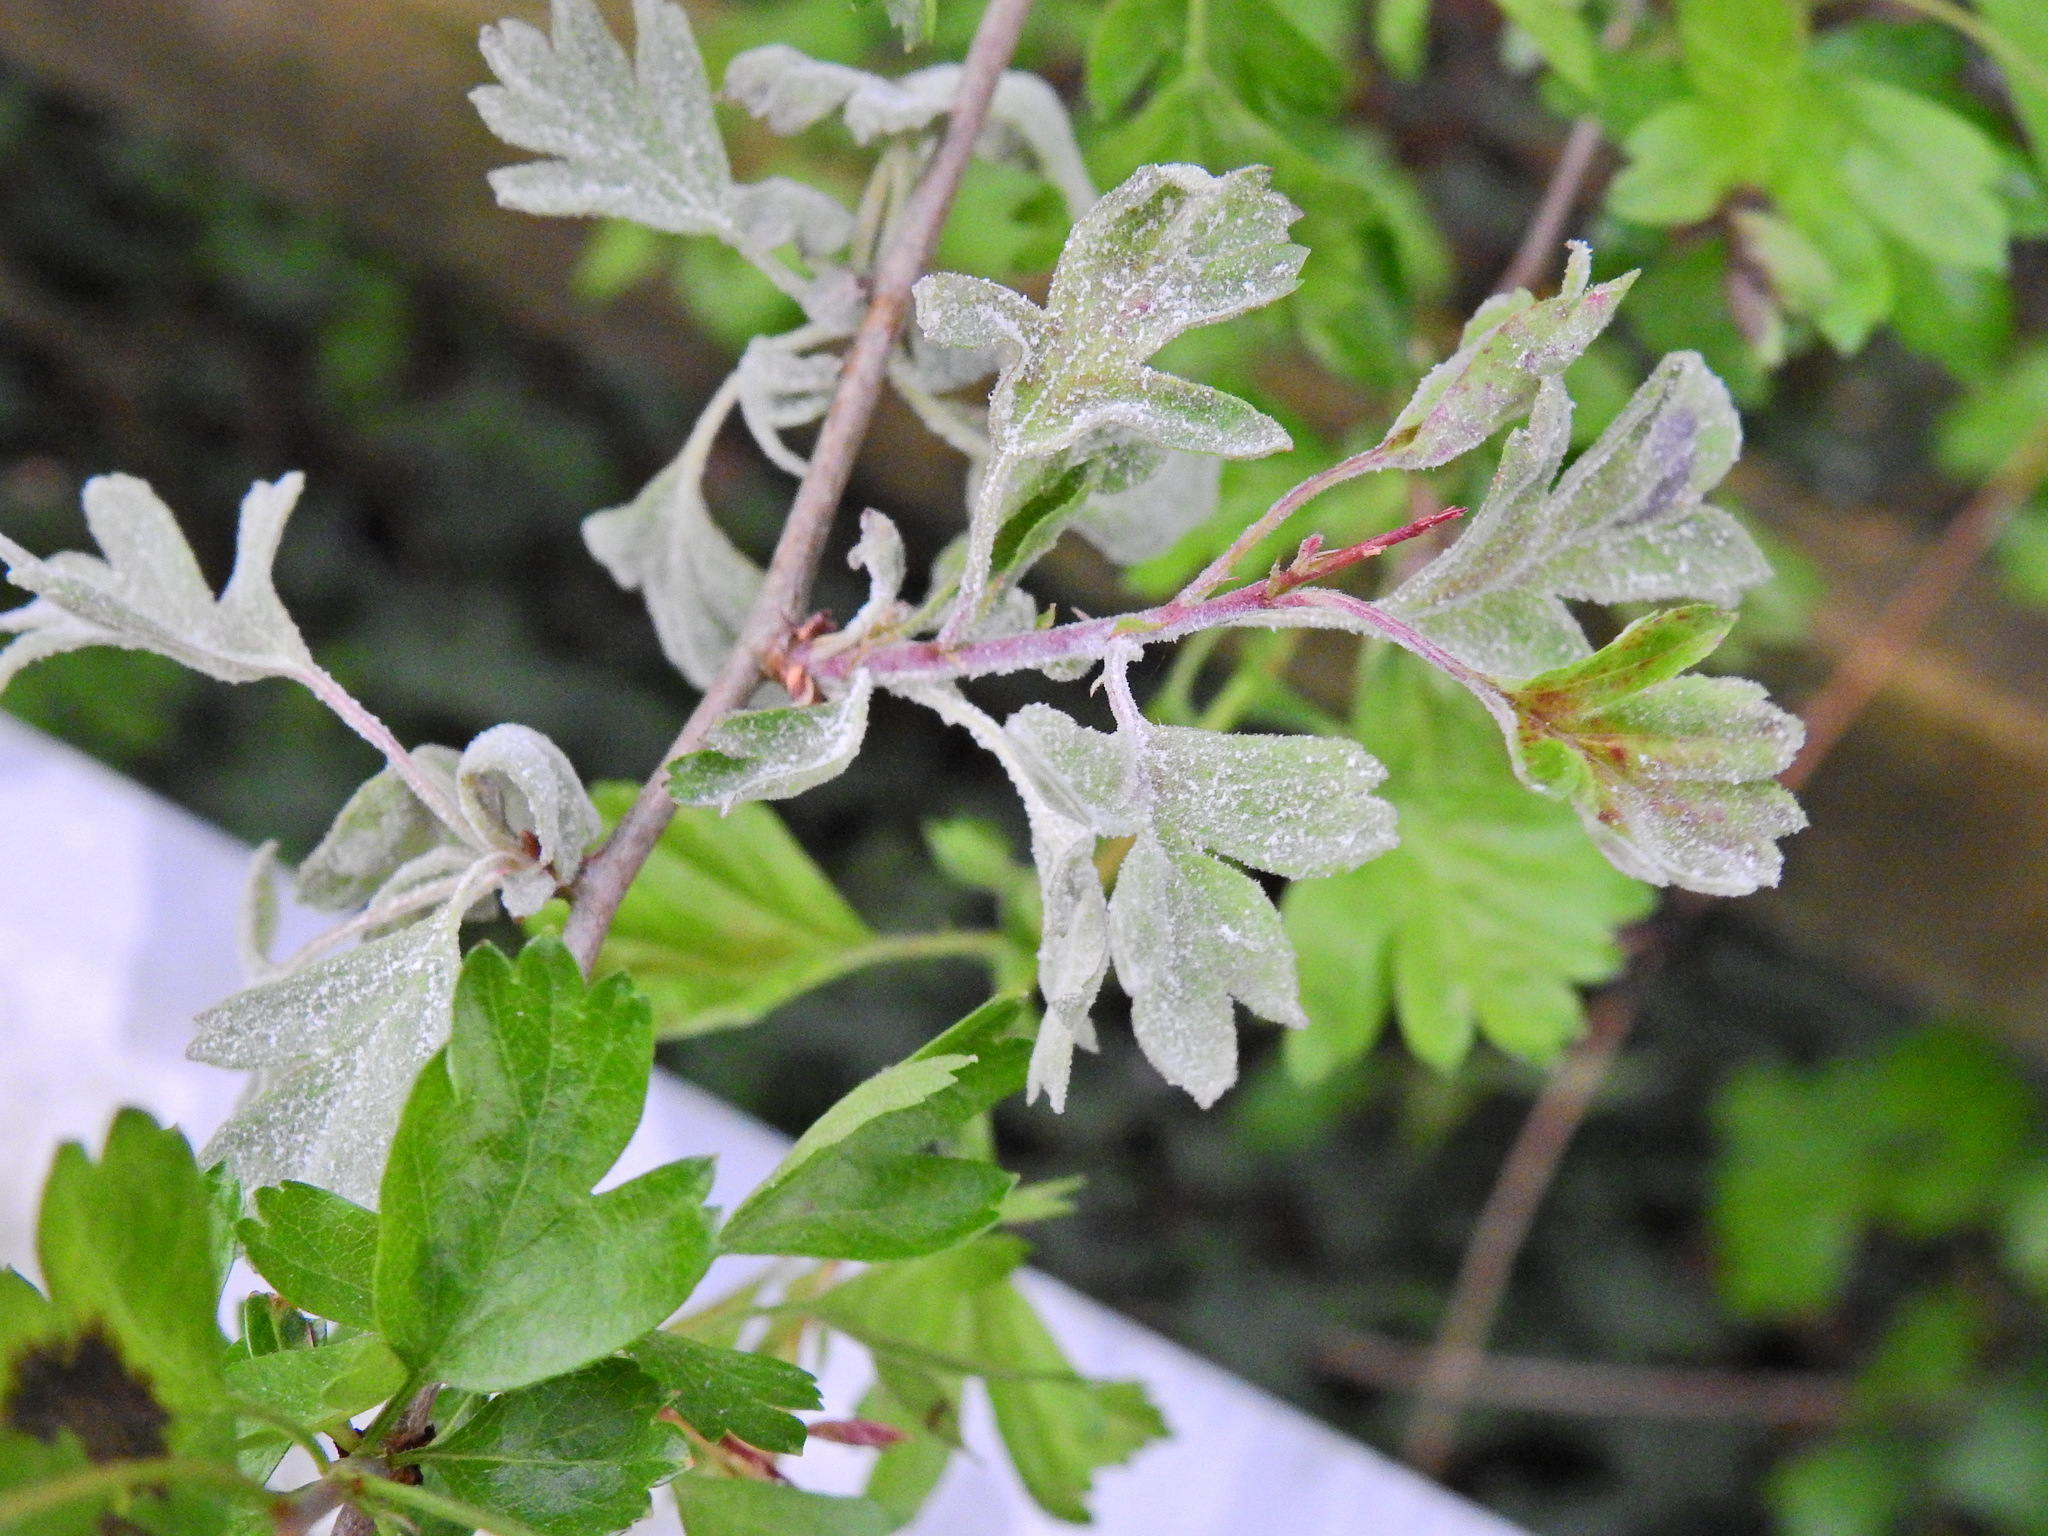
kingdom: Fungi
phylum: Ascomycota
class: Leotiomycetes
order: Helotiales
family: Erysiphaceae
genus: Podosphaera
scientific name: Podosphaera clandestina
